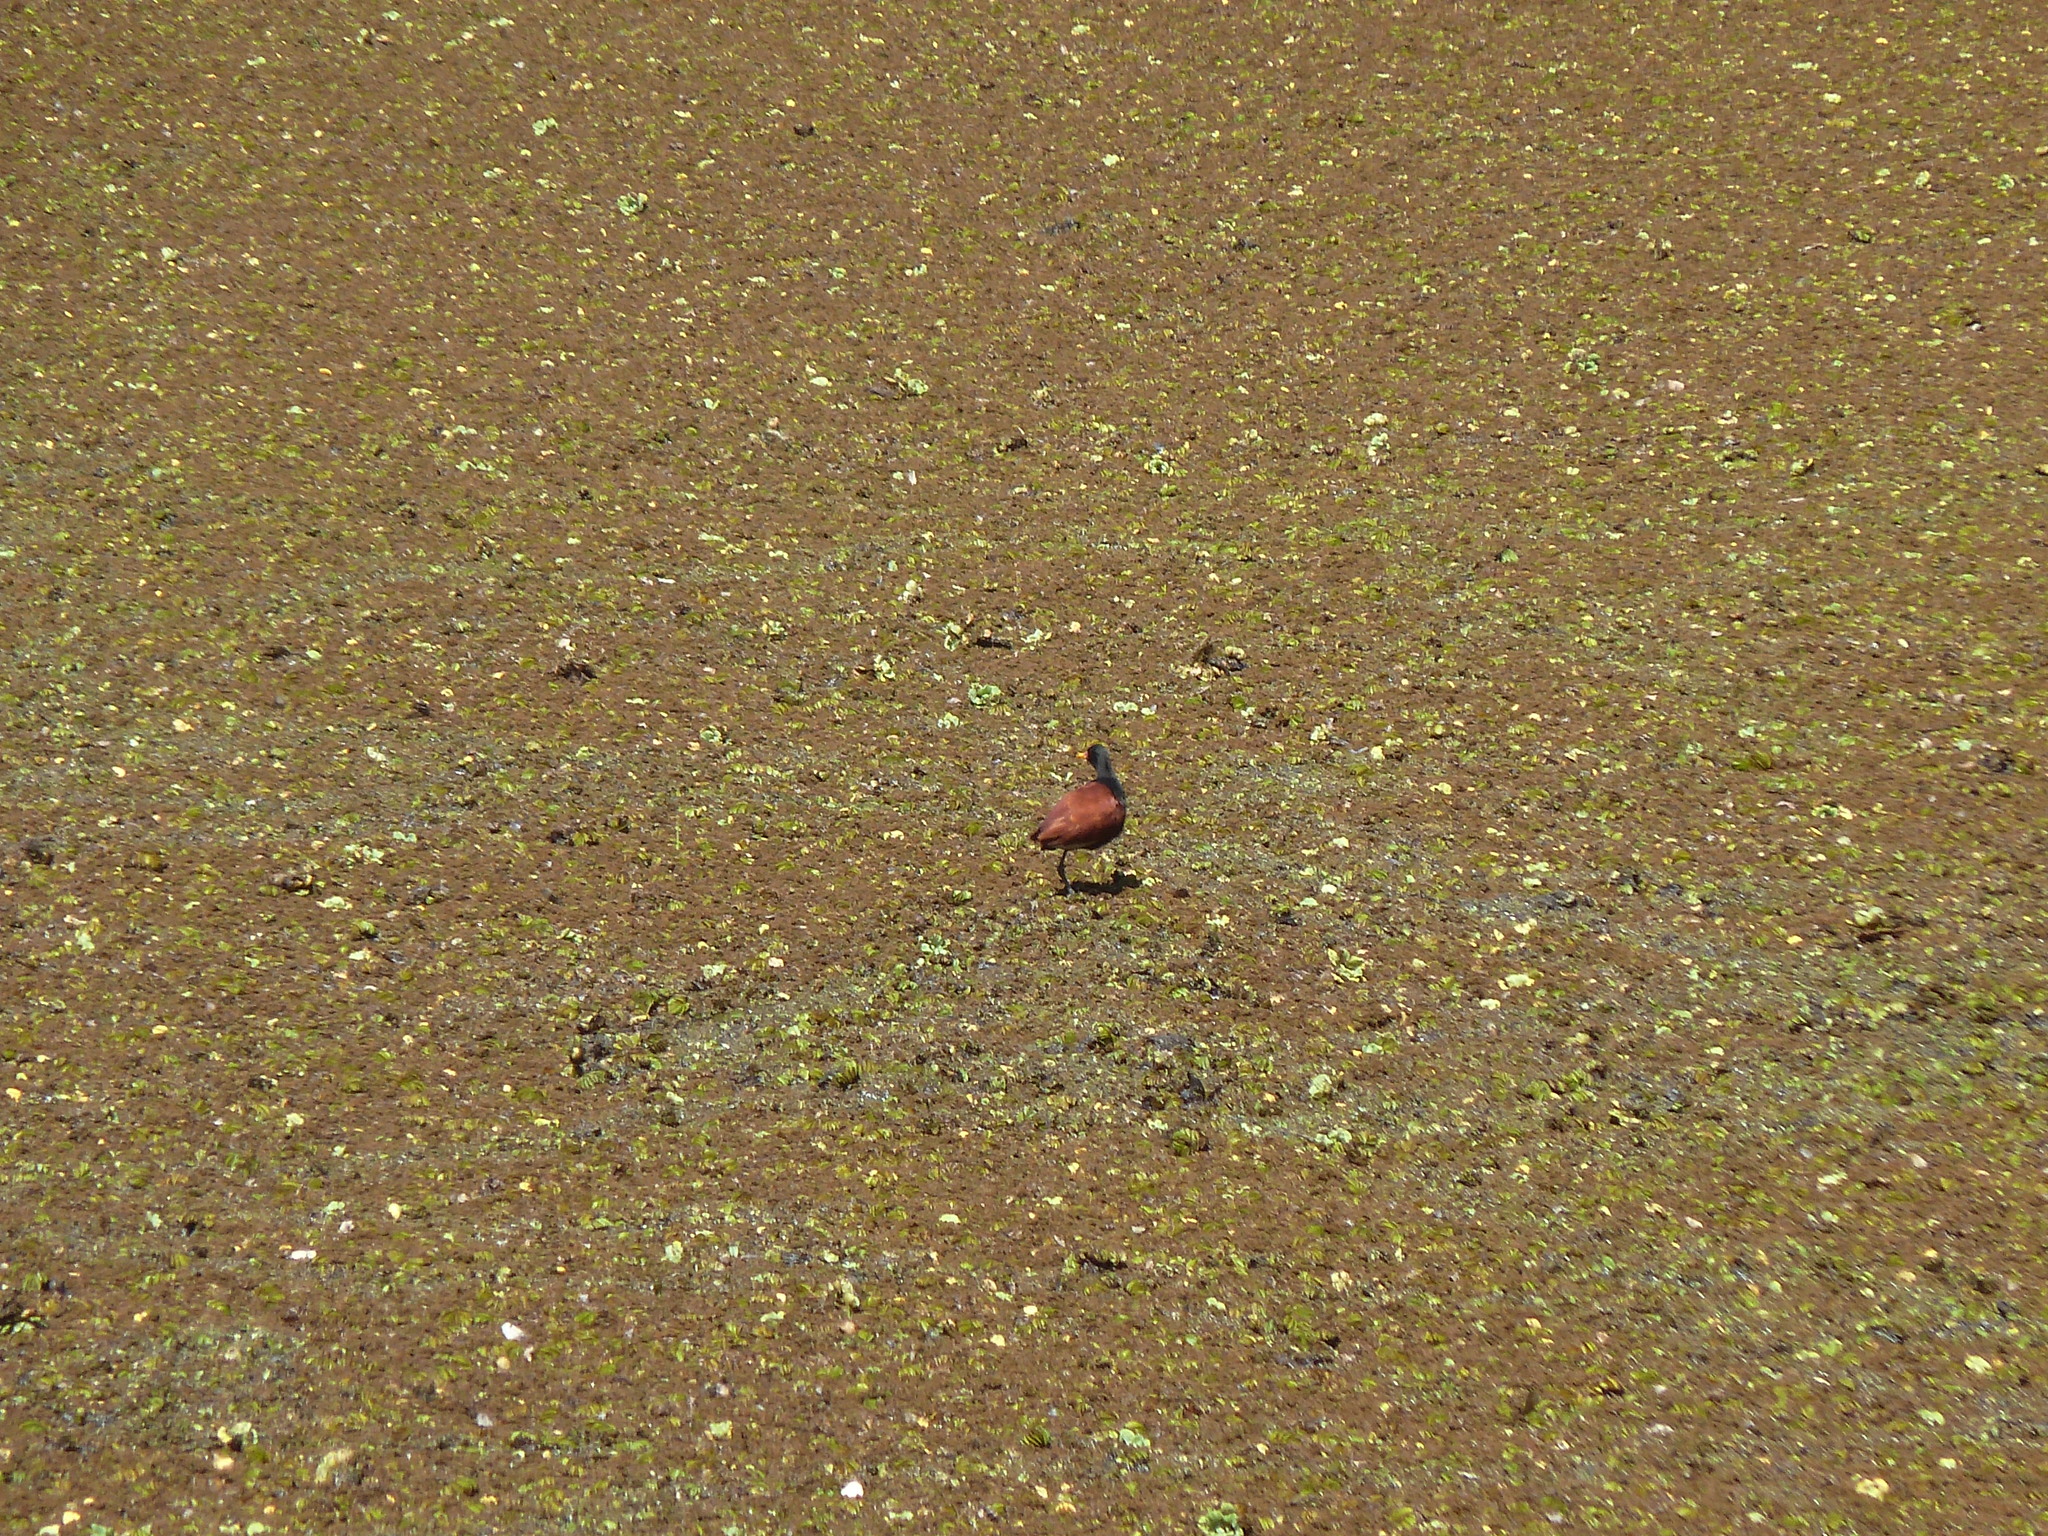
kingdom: Animalia
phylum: Chordata
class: Aves
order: Charadriiformes
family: Jacanidae
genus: Jacana
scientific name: Jacana jacana
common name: Wattled jacana
